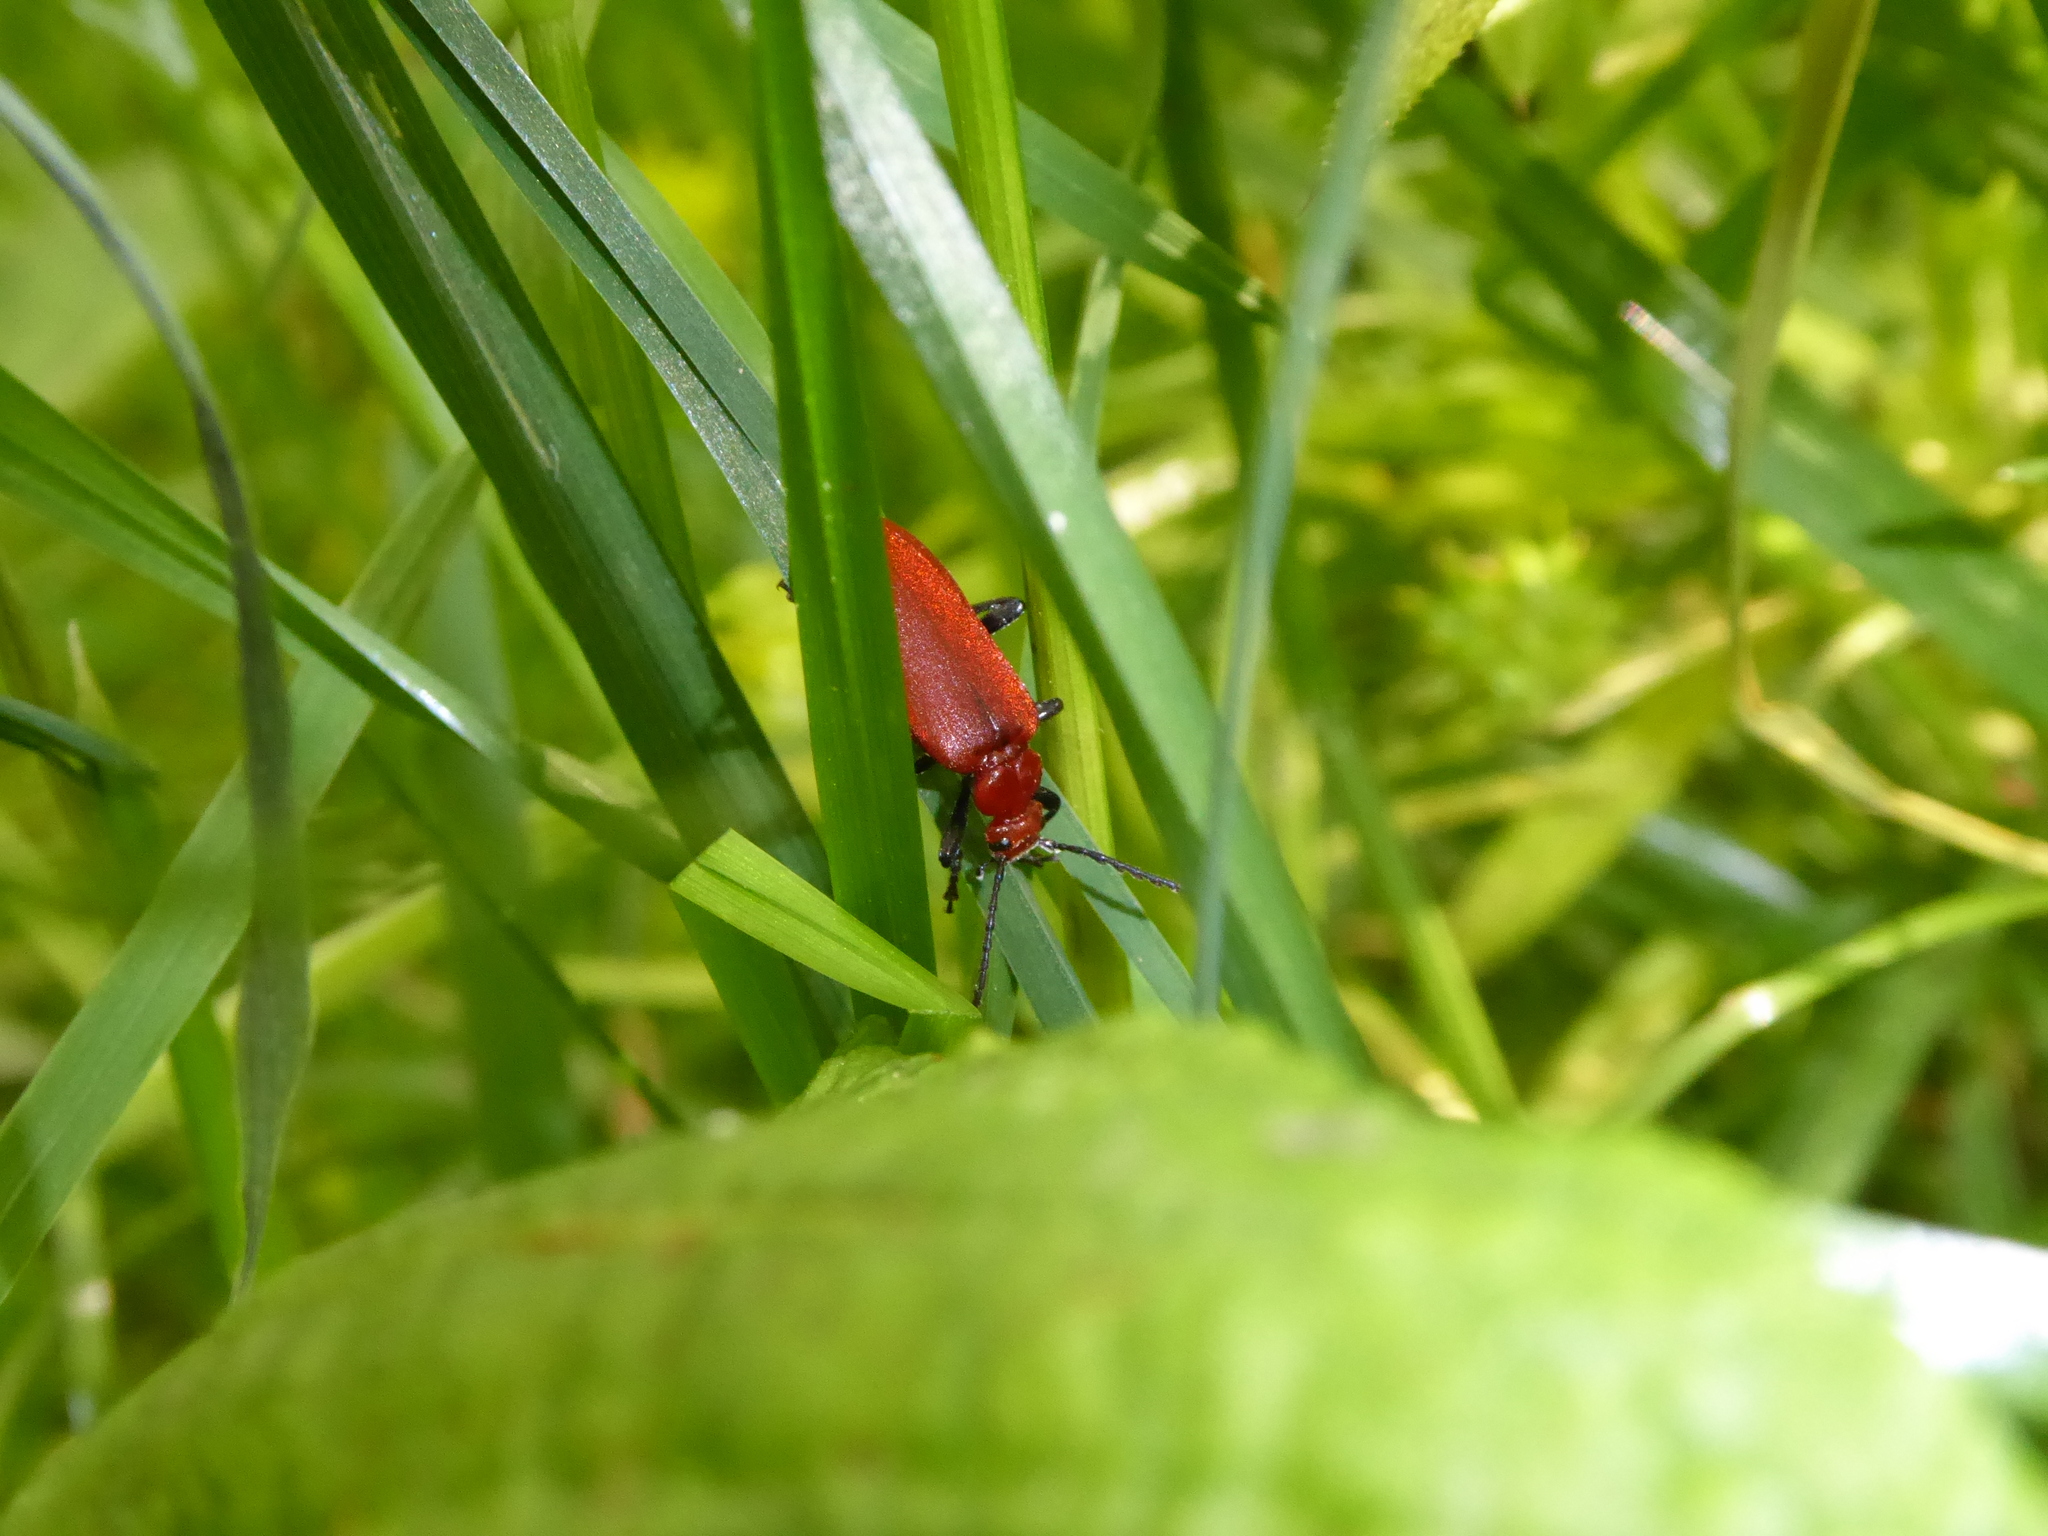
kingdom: Animalia
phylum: Arthropoda
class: Insecta
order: Coleoptera
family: Pyrochroidae
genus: Pyrochroa
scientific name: Pyrochroa serraticornis
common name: Red-headed cardinal beetle
